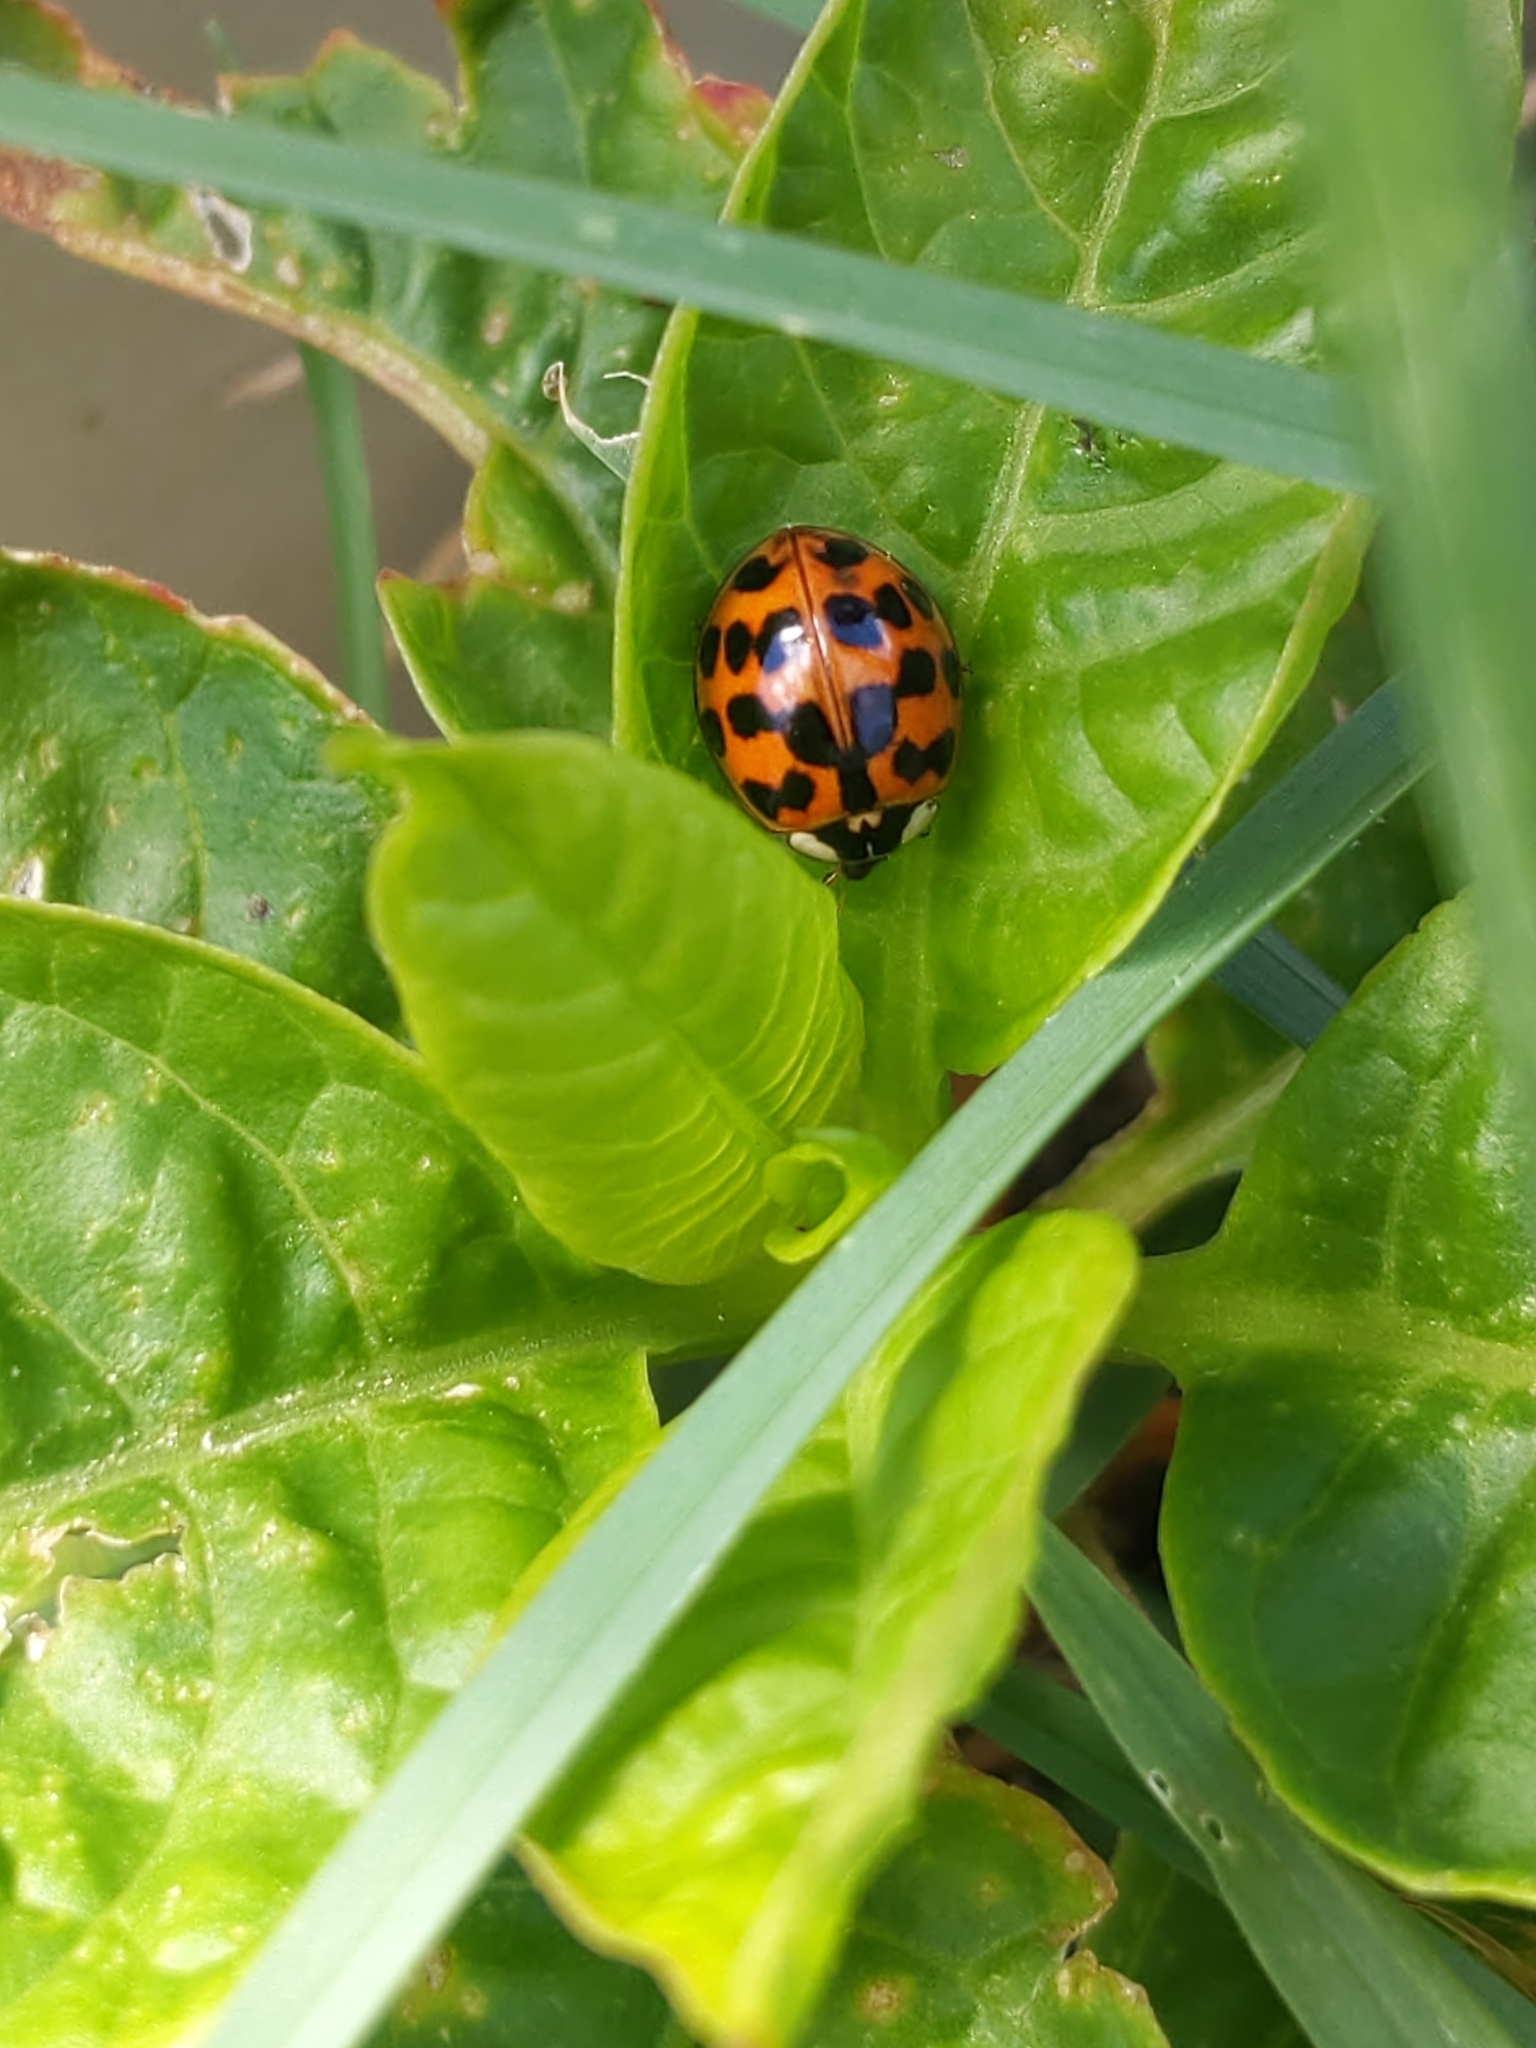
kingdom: Animalia
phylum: Arthropoda
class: Insecta
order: Coleoptera
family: Coccinellidae
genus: Harmonia
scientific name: Harmonia axyridis
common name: Harlequin ladybird
